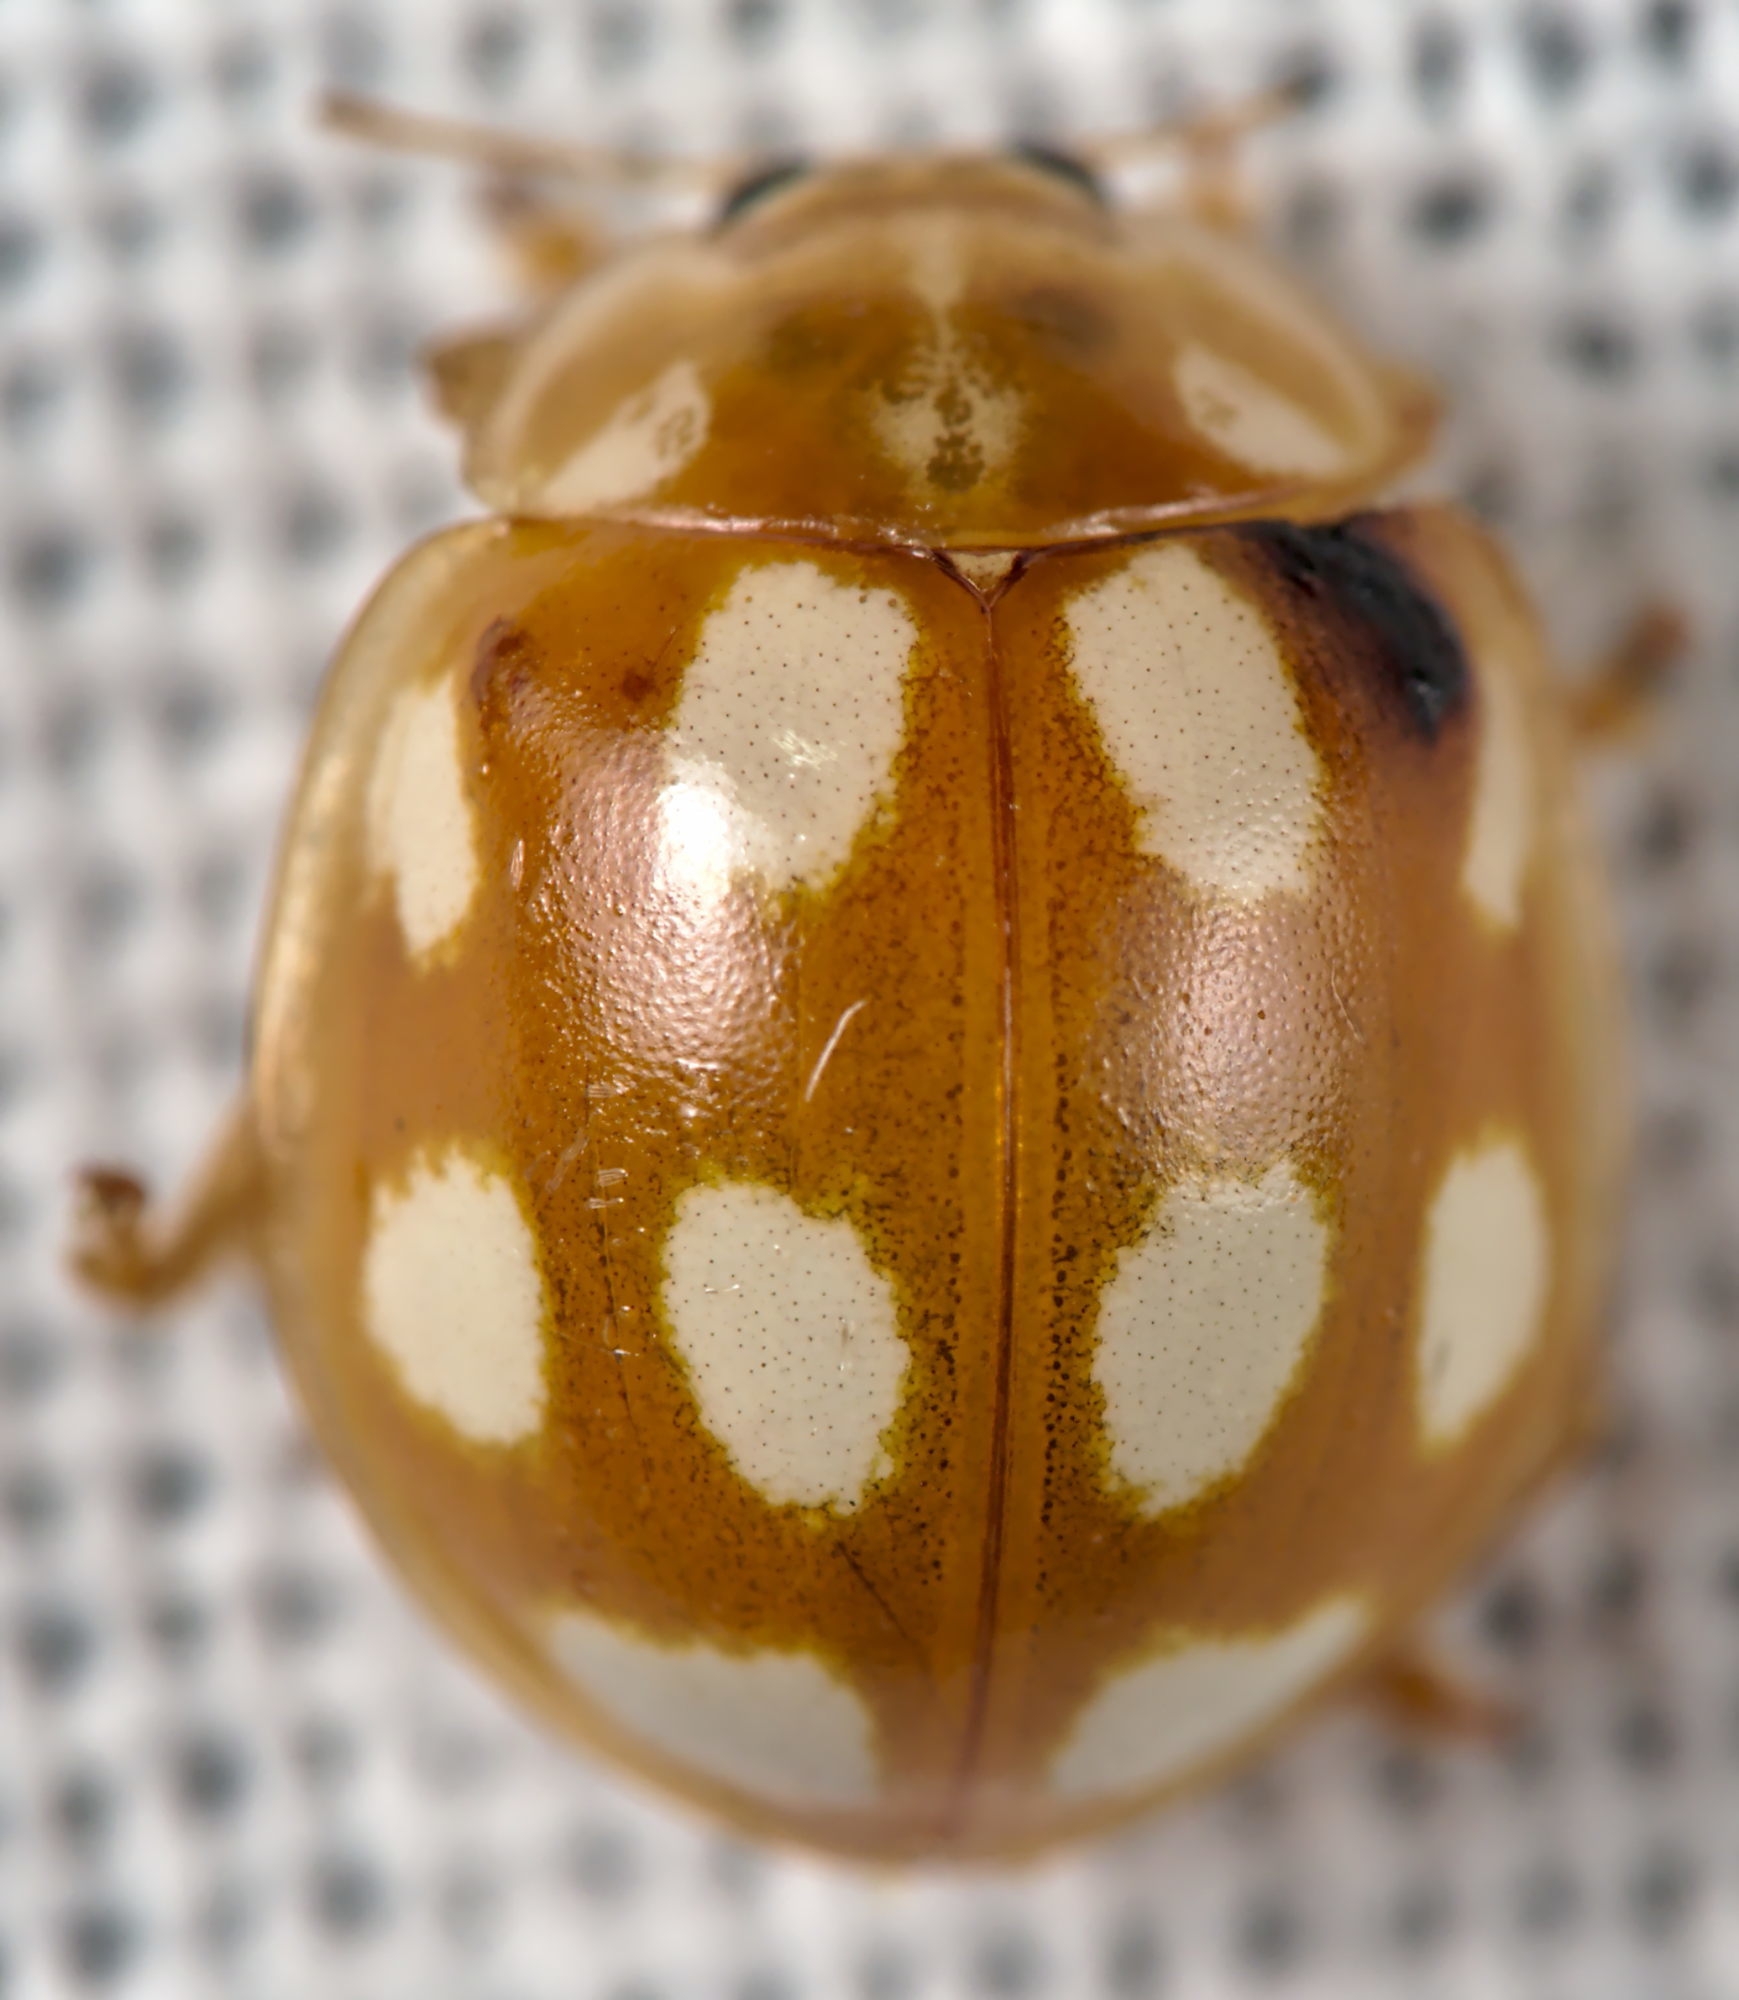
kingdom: Animalia
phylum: Arthropoda
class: Insecta
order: Coleoptera
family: Coccinellidae
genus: Calvia
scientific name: Calvia decemguttata
